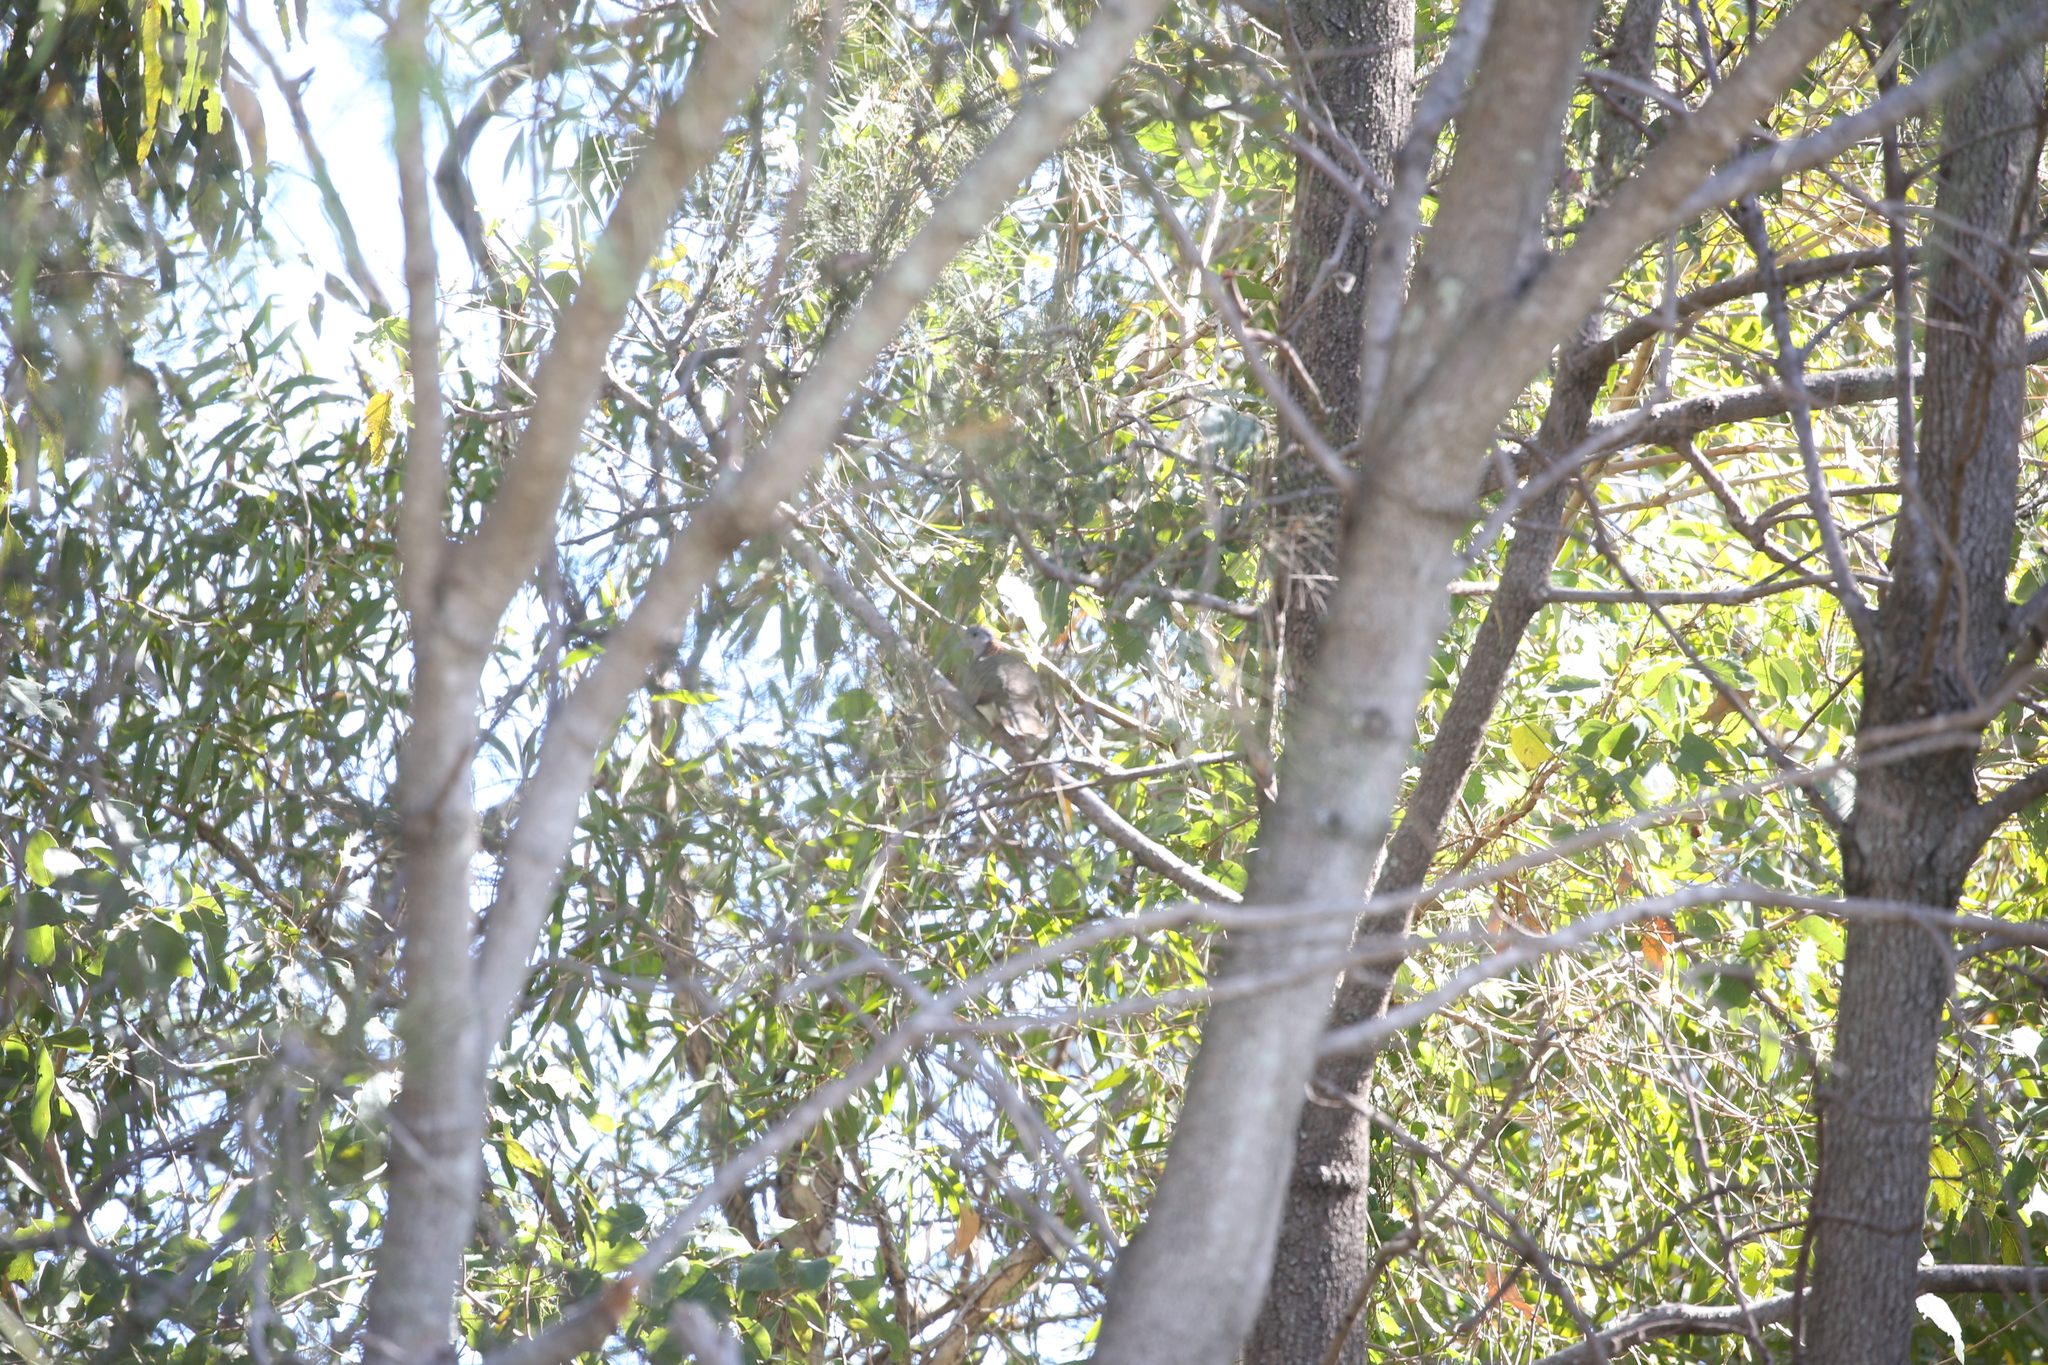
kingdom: Animalia
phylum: Chordata
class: Aves
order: Columbiformes
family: Columbidae
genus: Geopelia
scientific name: Geopelia humeralis
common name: Bar-shouldered dove
